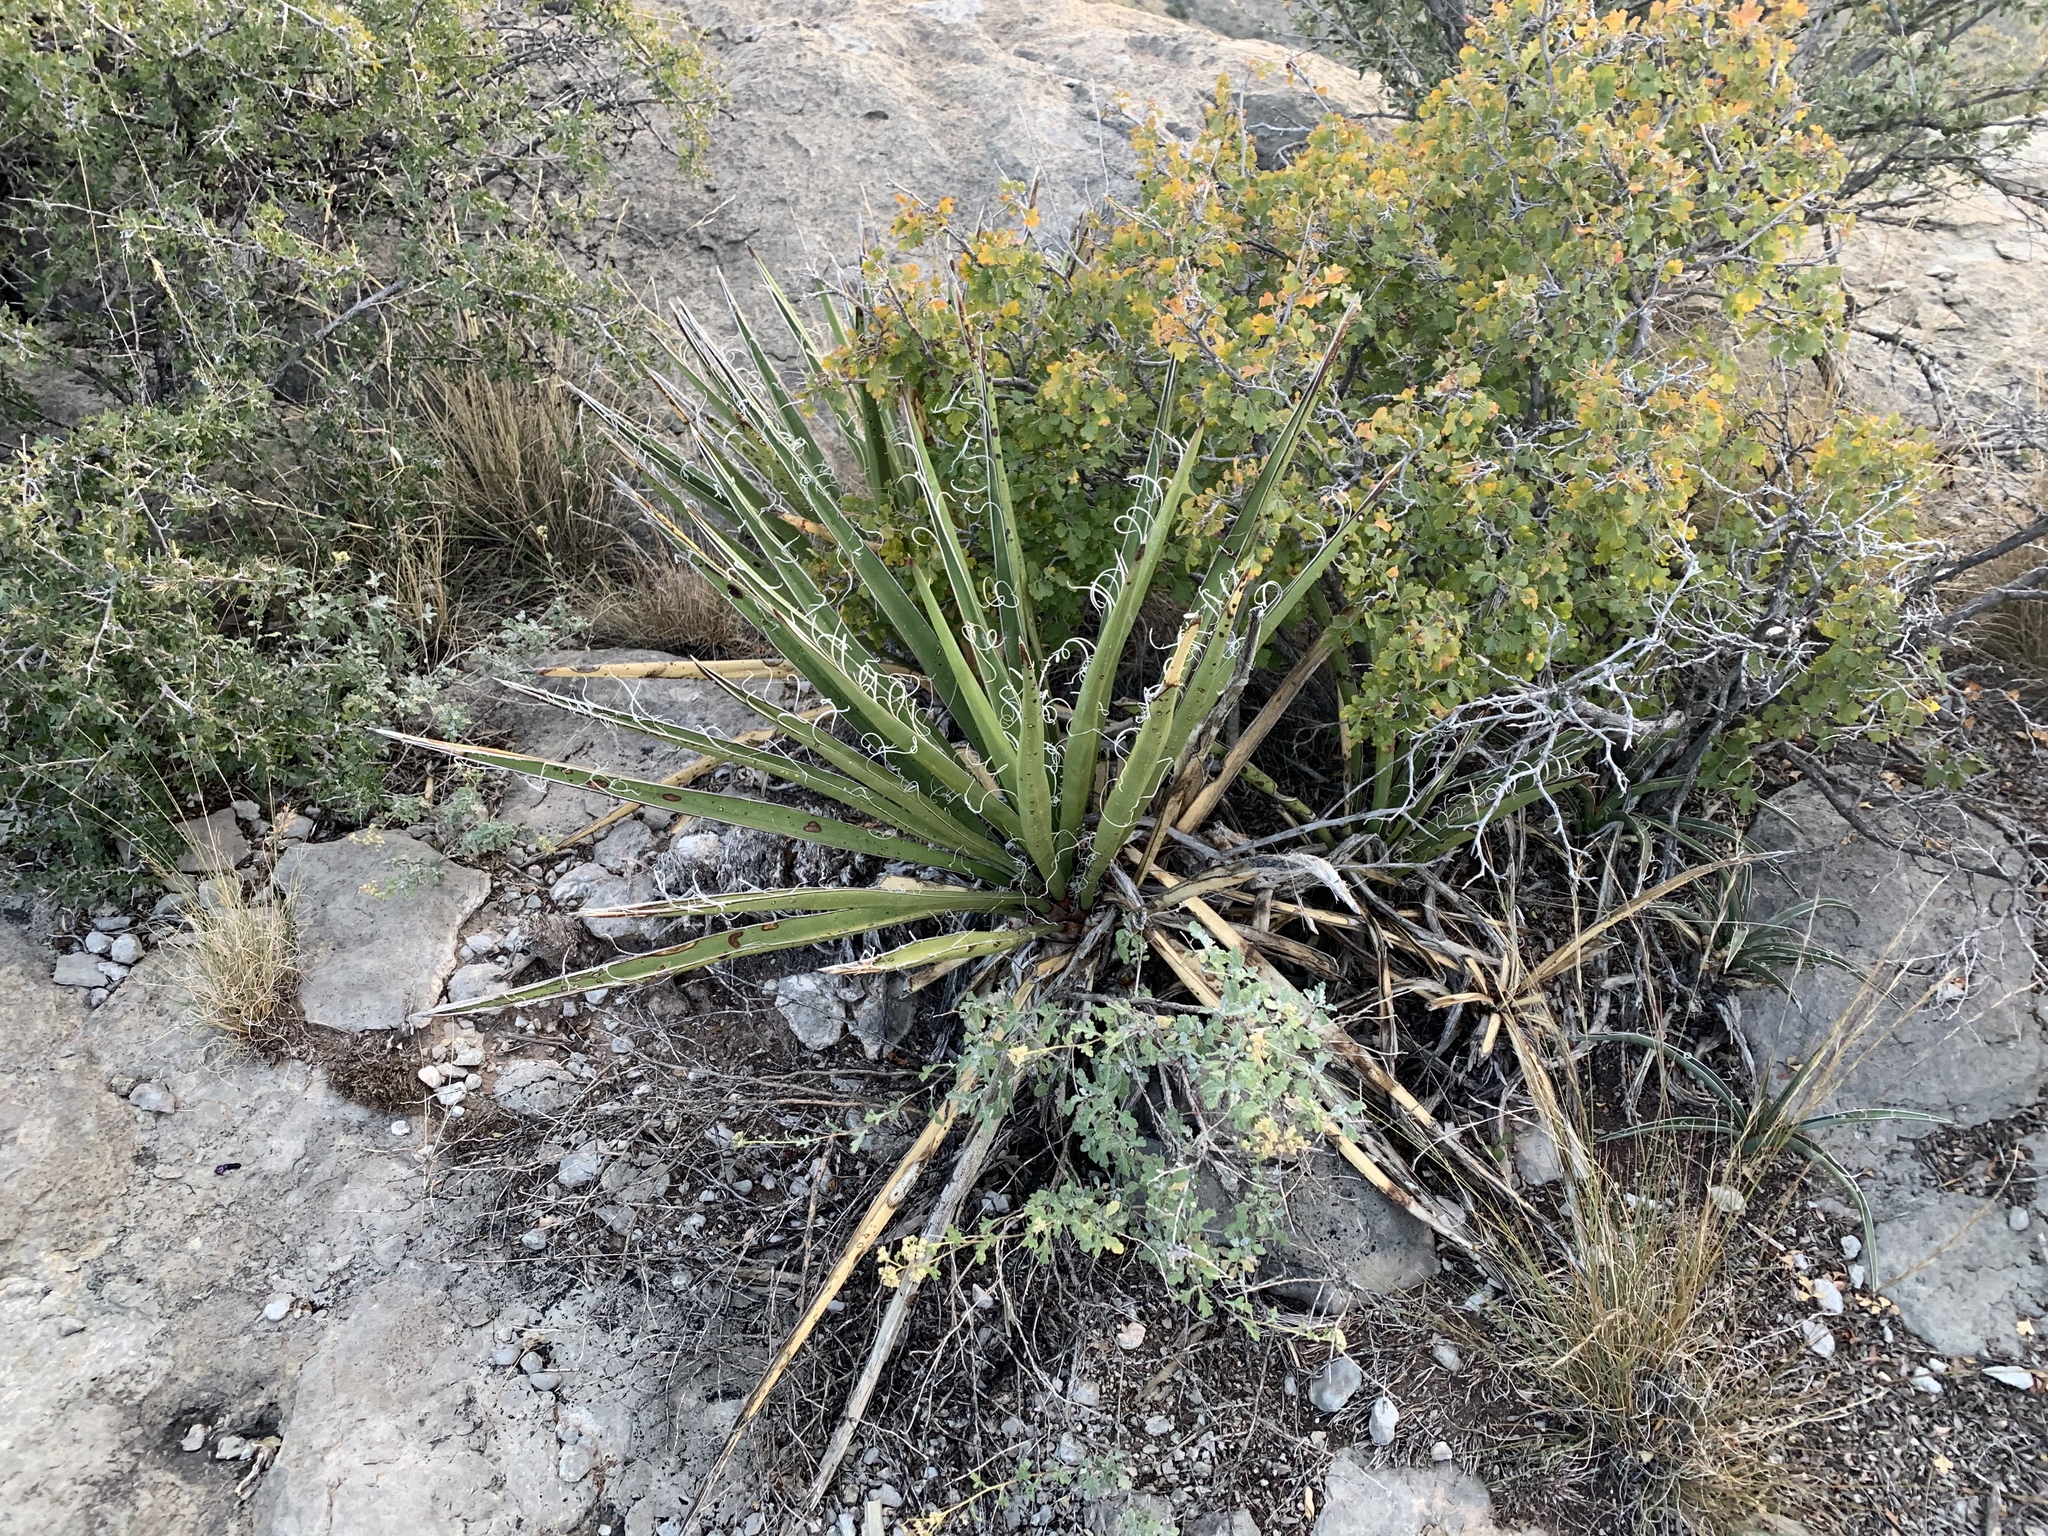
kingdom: Plantae
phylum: Tracheophyta
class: Liliopsida
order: Asparagales
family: Asparagaceae
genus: Yucca
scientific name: Yucca baccata
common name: Banana yucca
